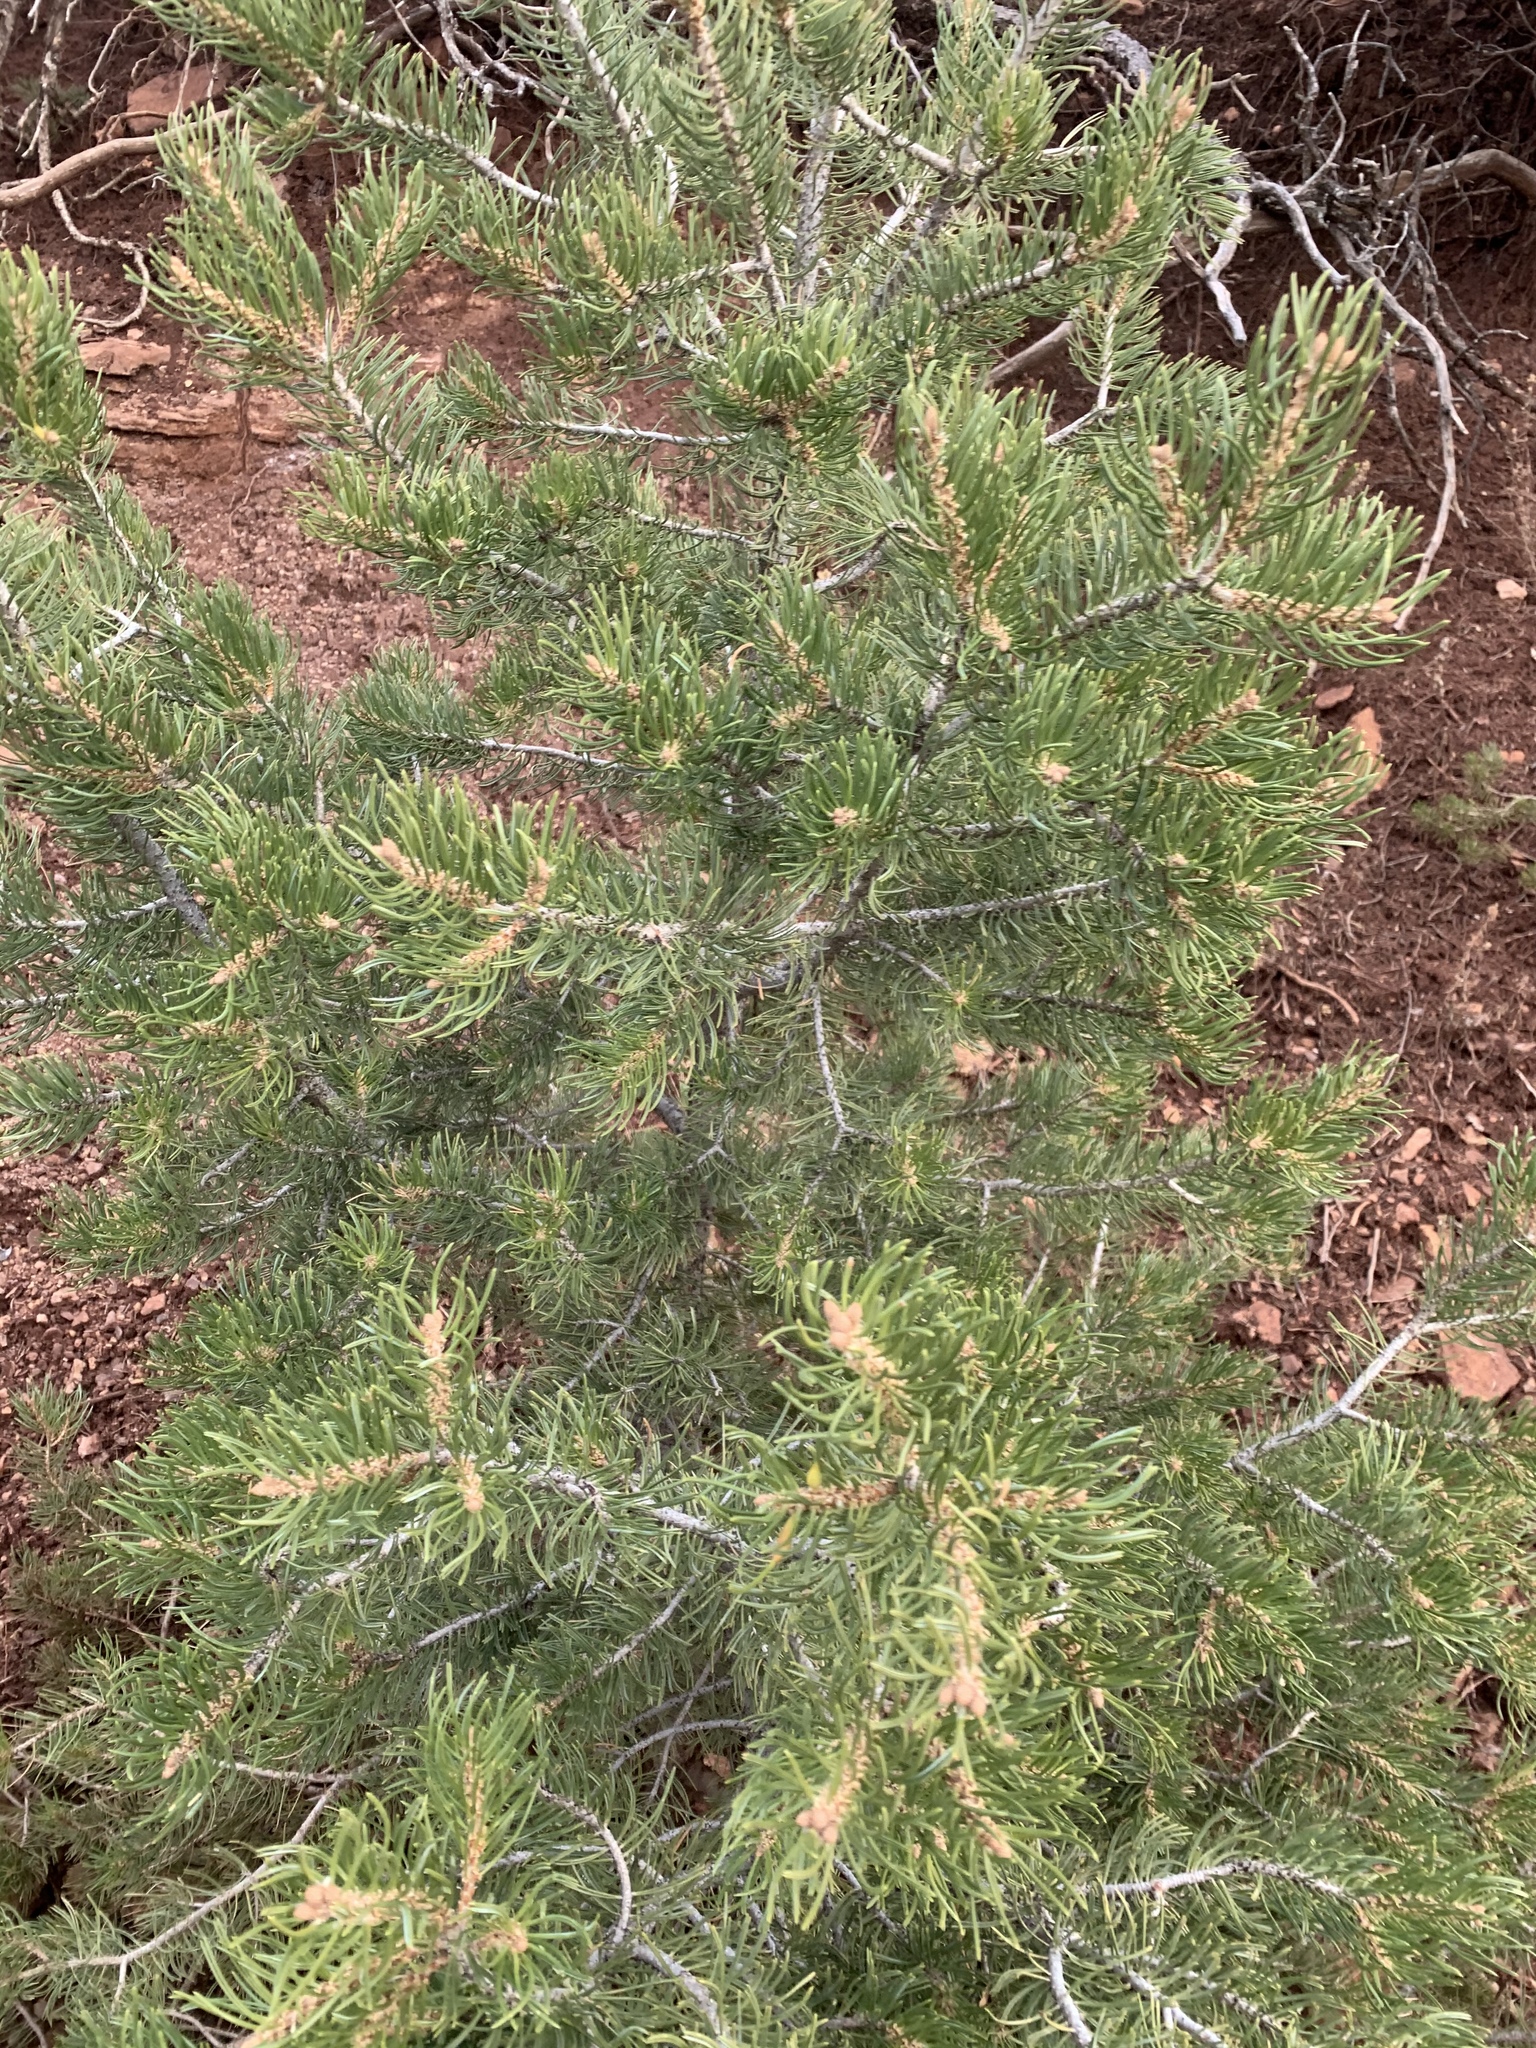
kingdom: Plantae
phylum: Tracheophyta
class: Pinopsida
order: Pinales
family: Pinaceae
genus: Pinus
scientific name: Pinus edulis
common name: Colorado pinyon
